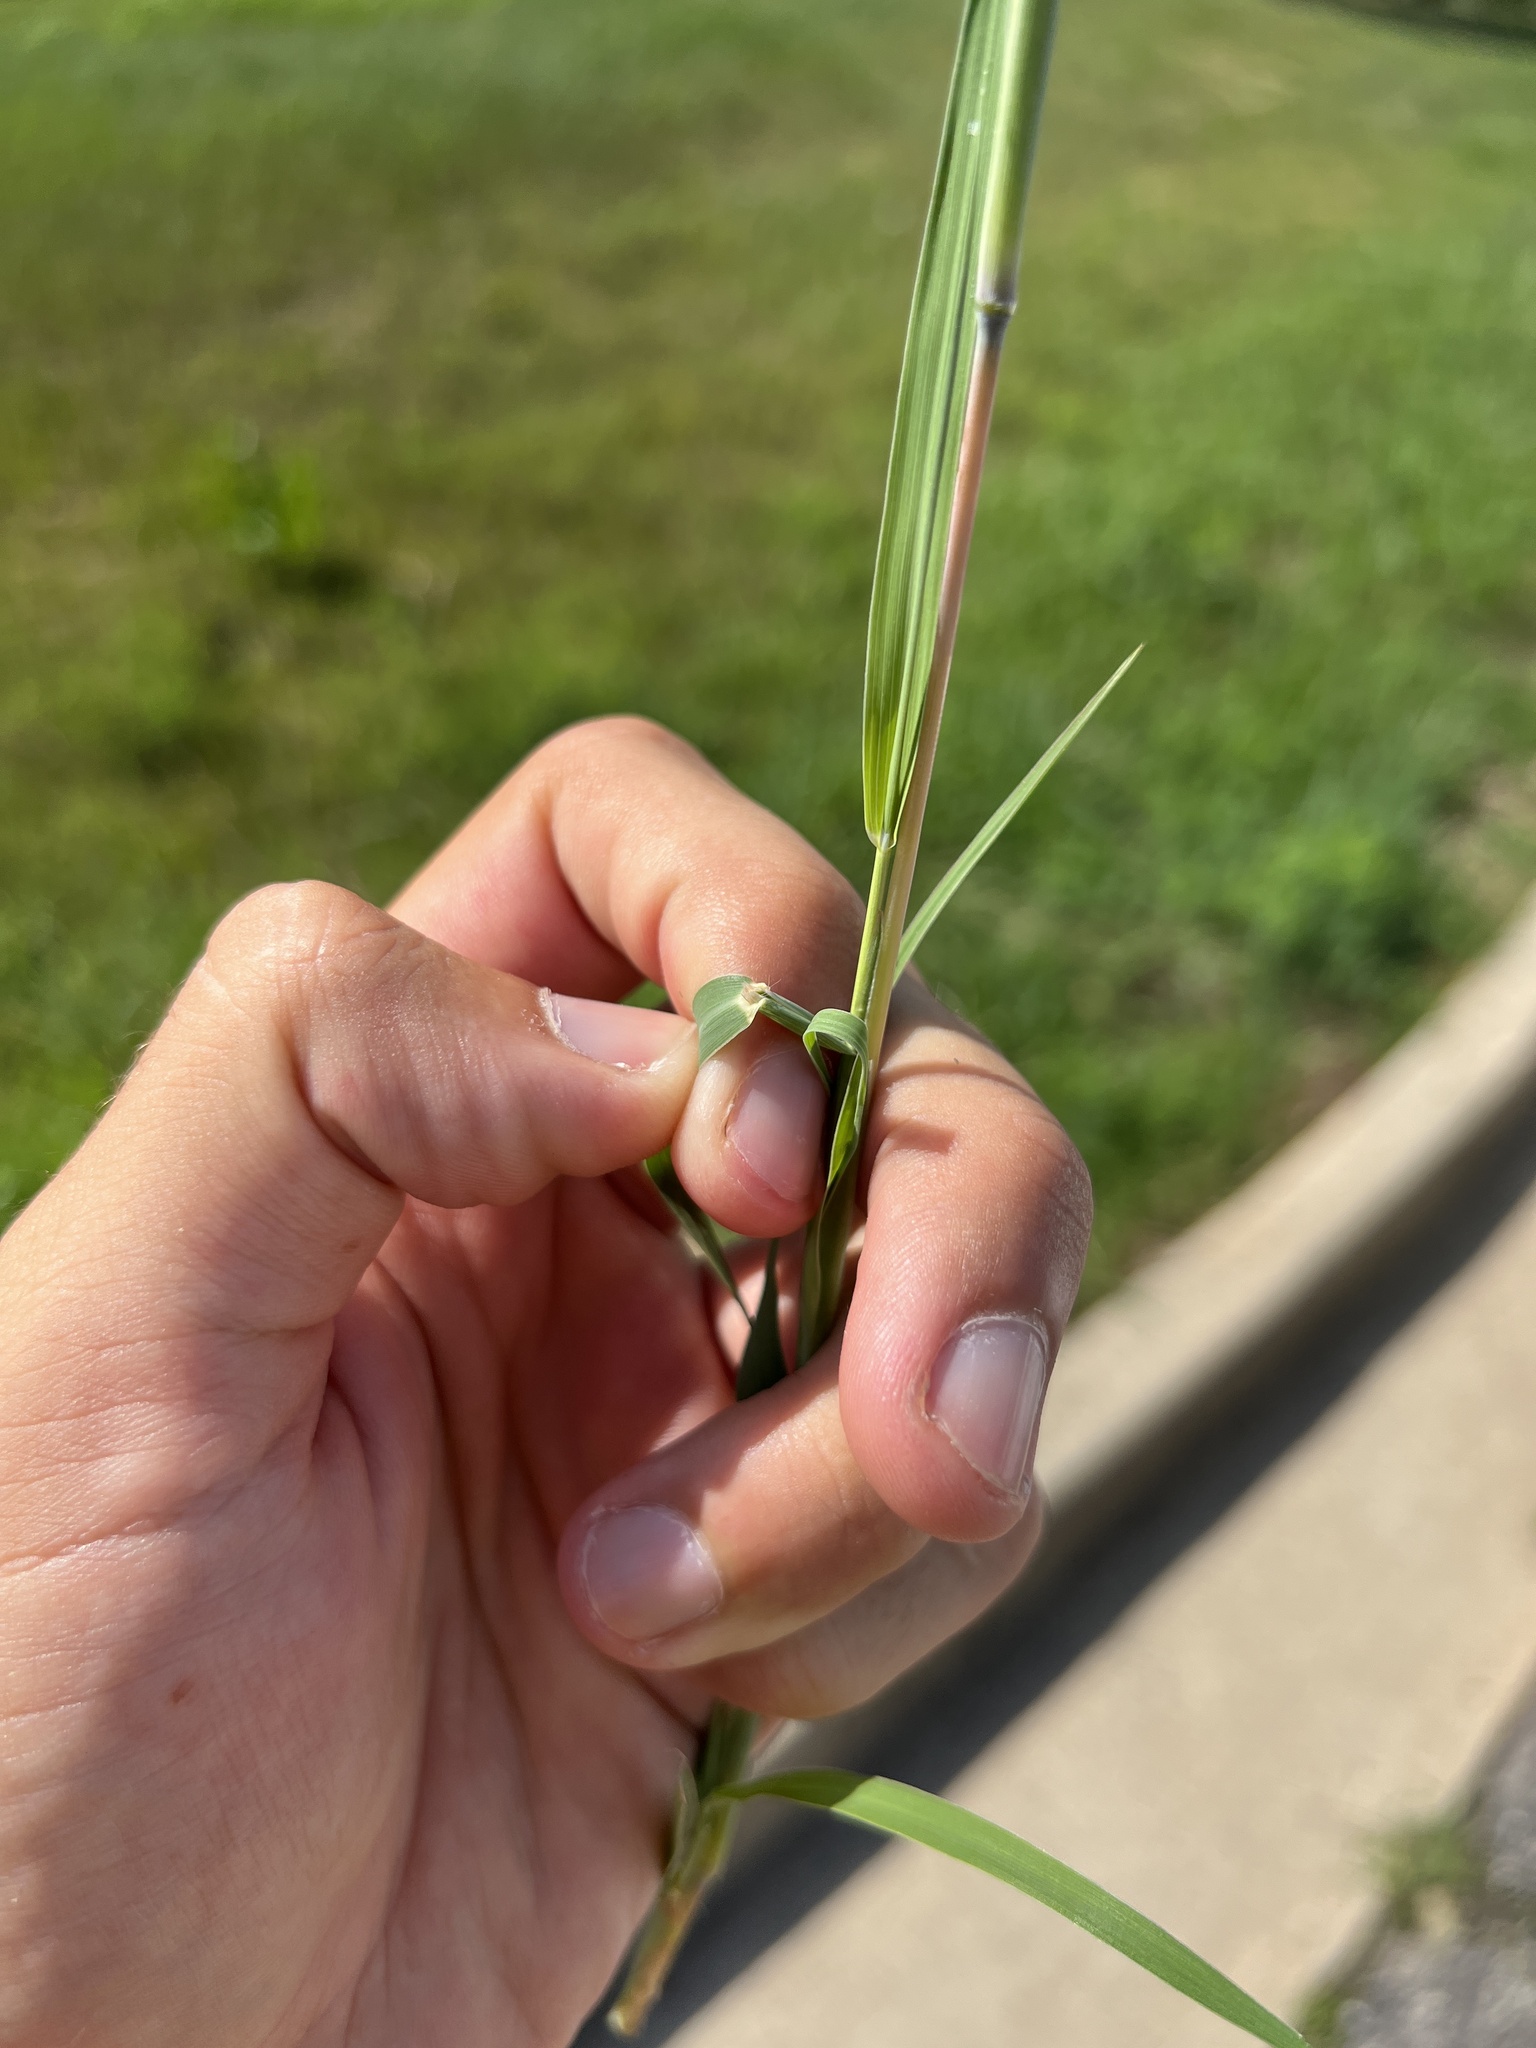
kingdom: Plantae
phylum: Tracheophyta
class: Liliopsida
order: Poales
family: Poaceae
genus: Bothriochloa
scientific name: Bothriochloa torreyana
